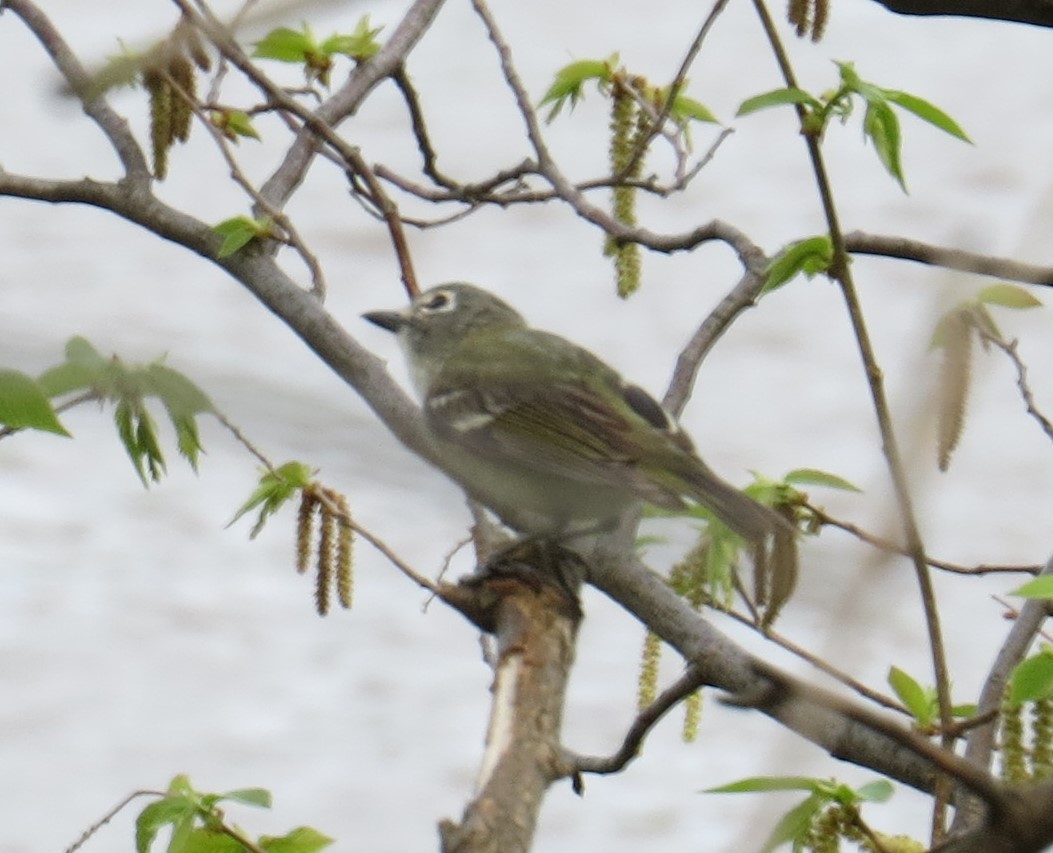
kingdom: Animalia
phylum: Chordata
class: Aves
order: Passeriformes
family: Vireonidae
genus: Vireo
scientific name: Vireo solitarius
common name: Blue-headed vireo
